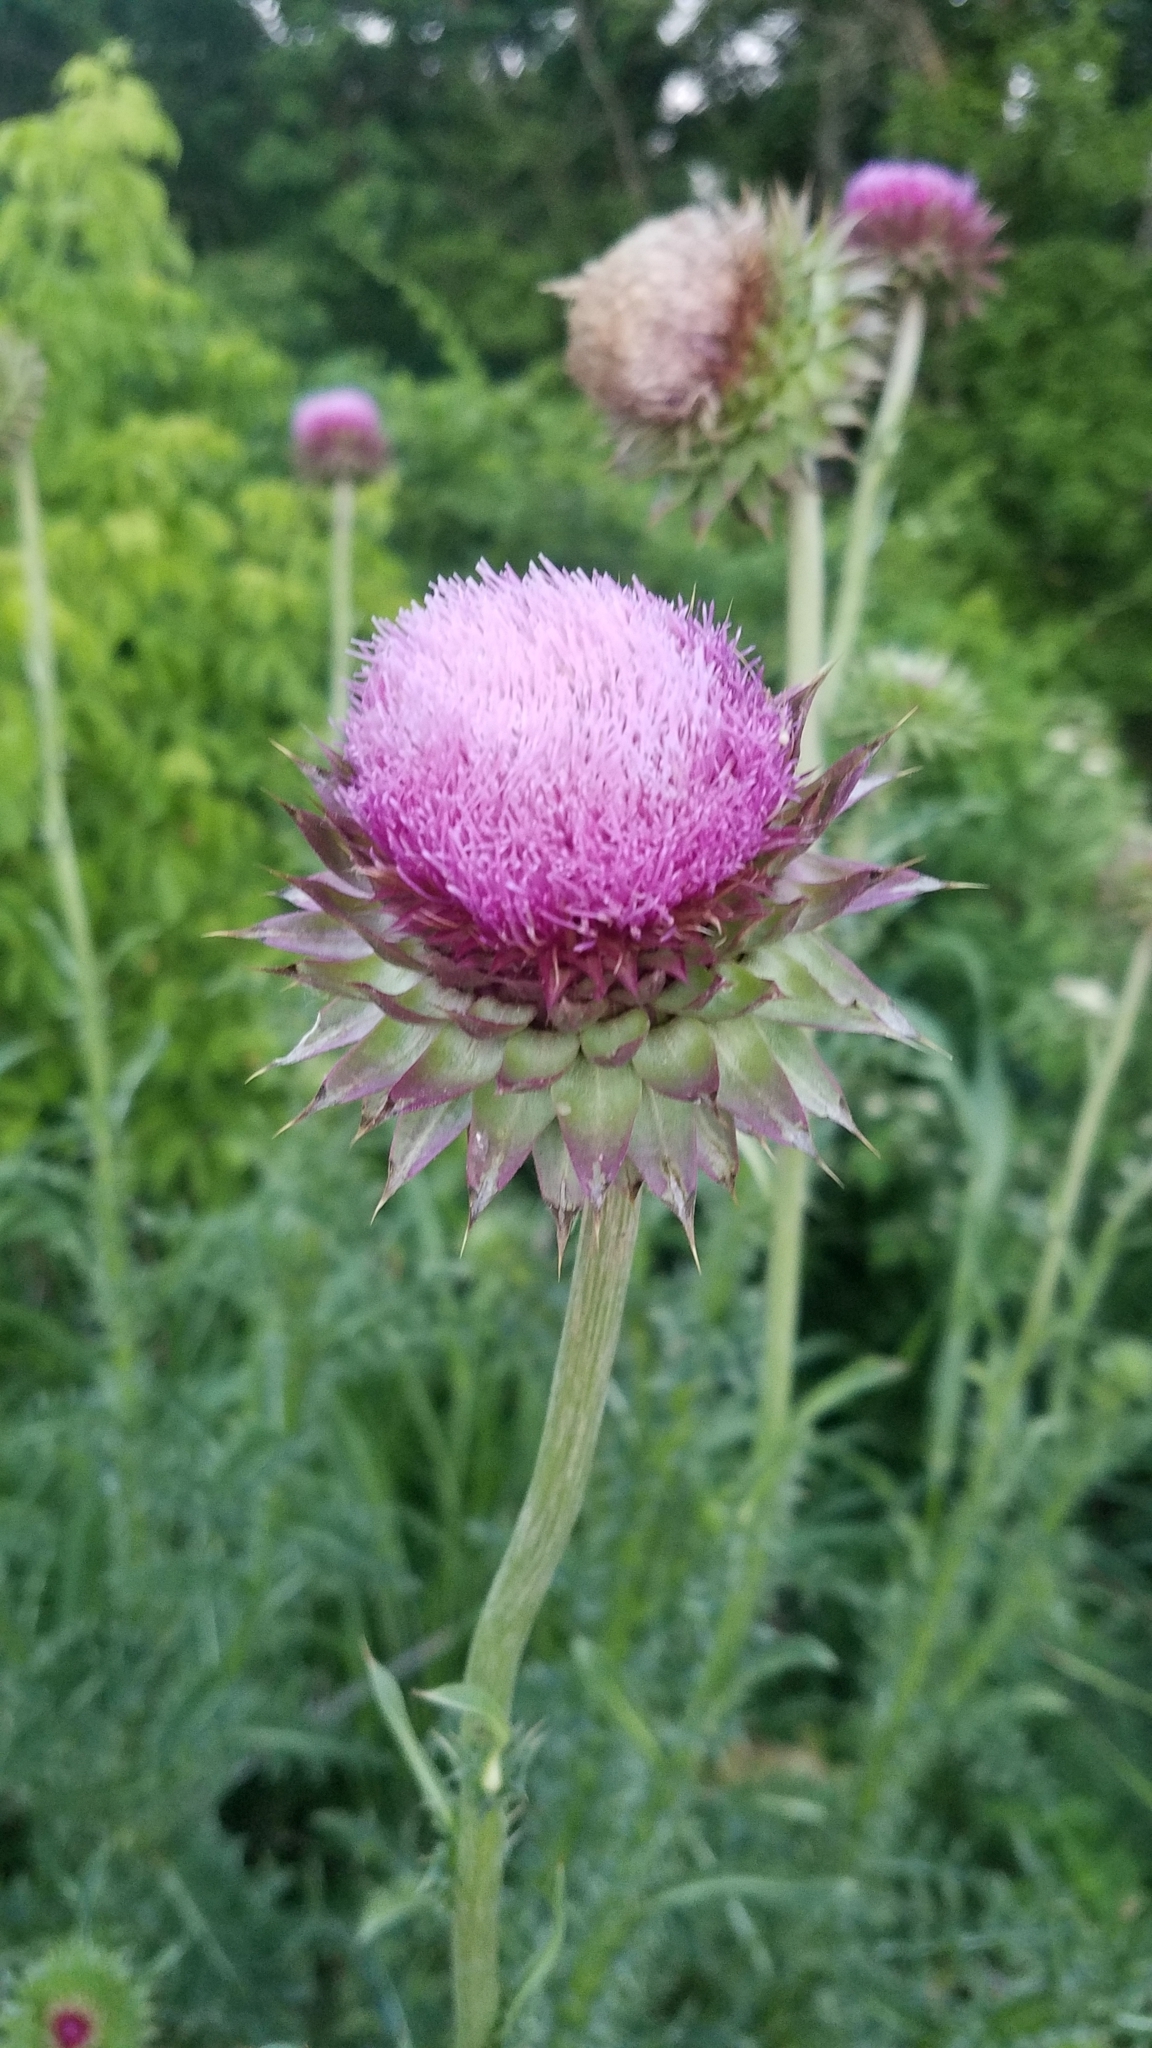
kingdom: Plantae
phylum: Tracheophyta
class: Magnoliopsida
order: Asterales
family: Asteraceae
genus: Carduus
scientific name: Carduus nutans
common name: Musk thistle
